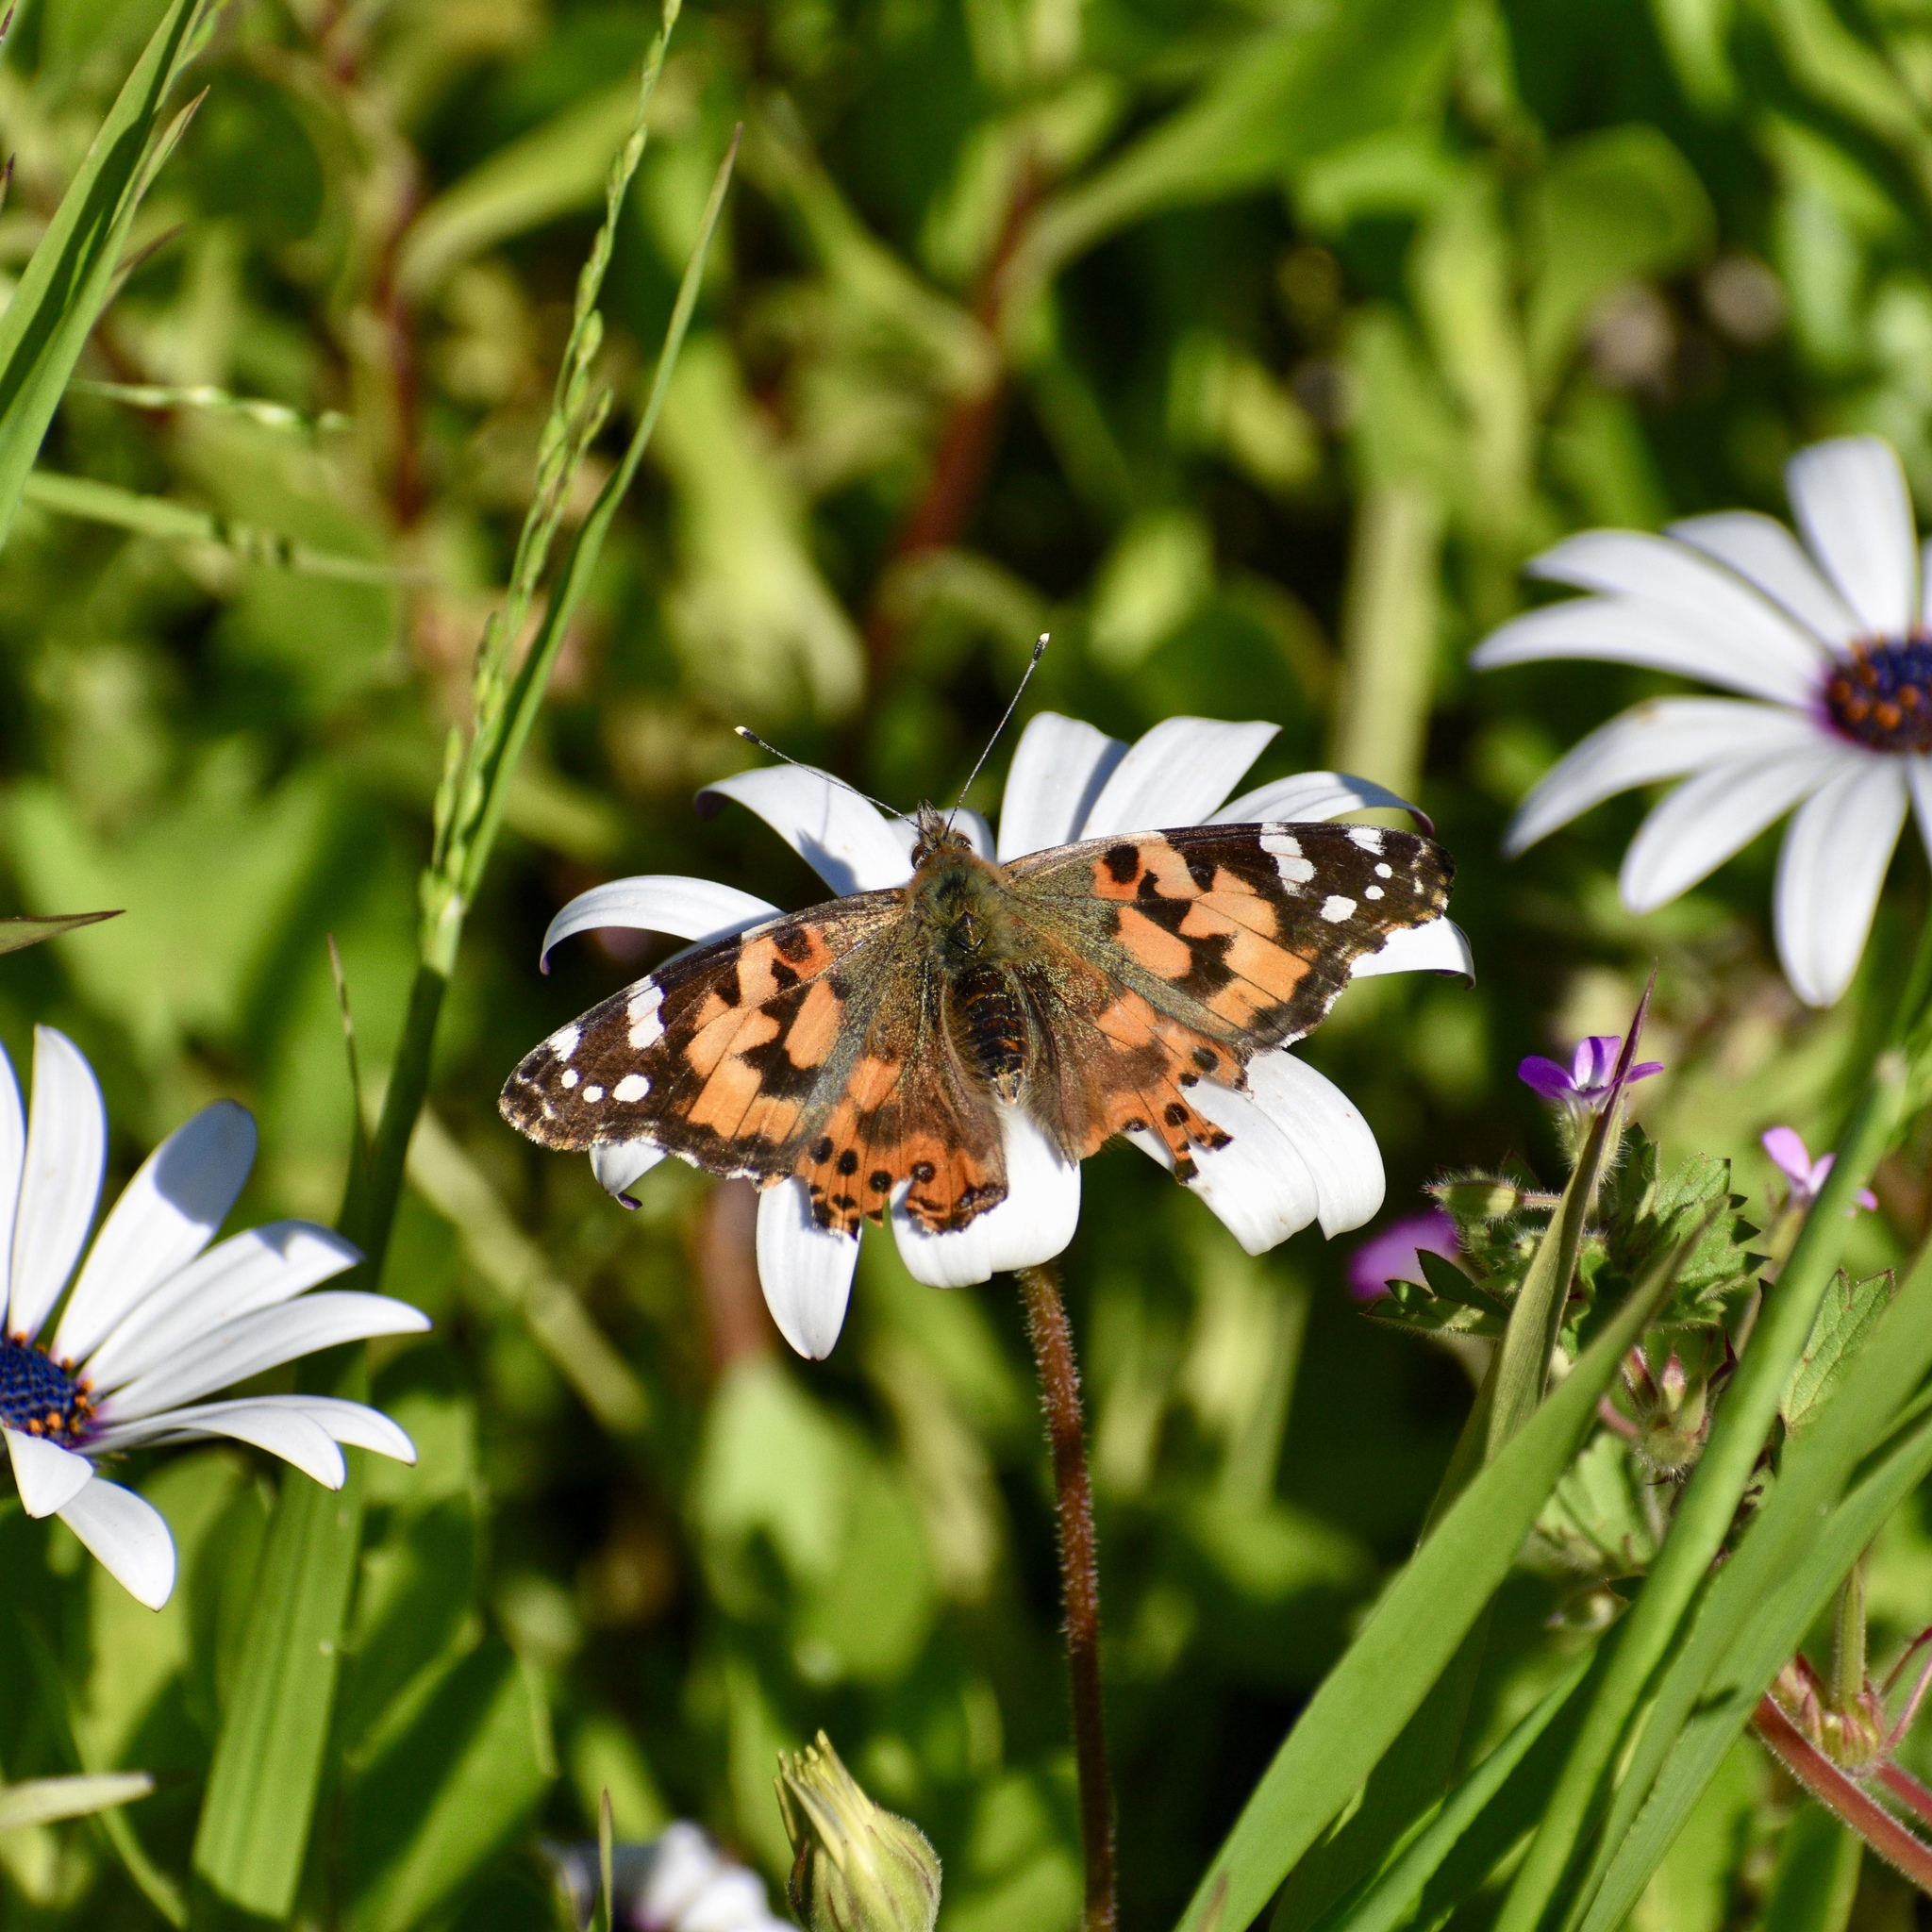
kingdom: Animalia
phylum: Arthropoda
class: Insecta
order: Lepidoptera
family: Nymphalidae
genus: Vanessa
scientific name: Vanessa cardui
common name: Painted lady
